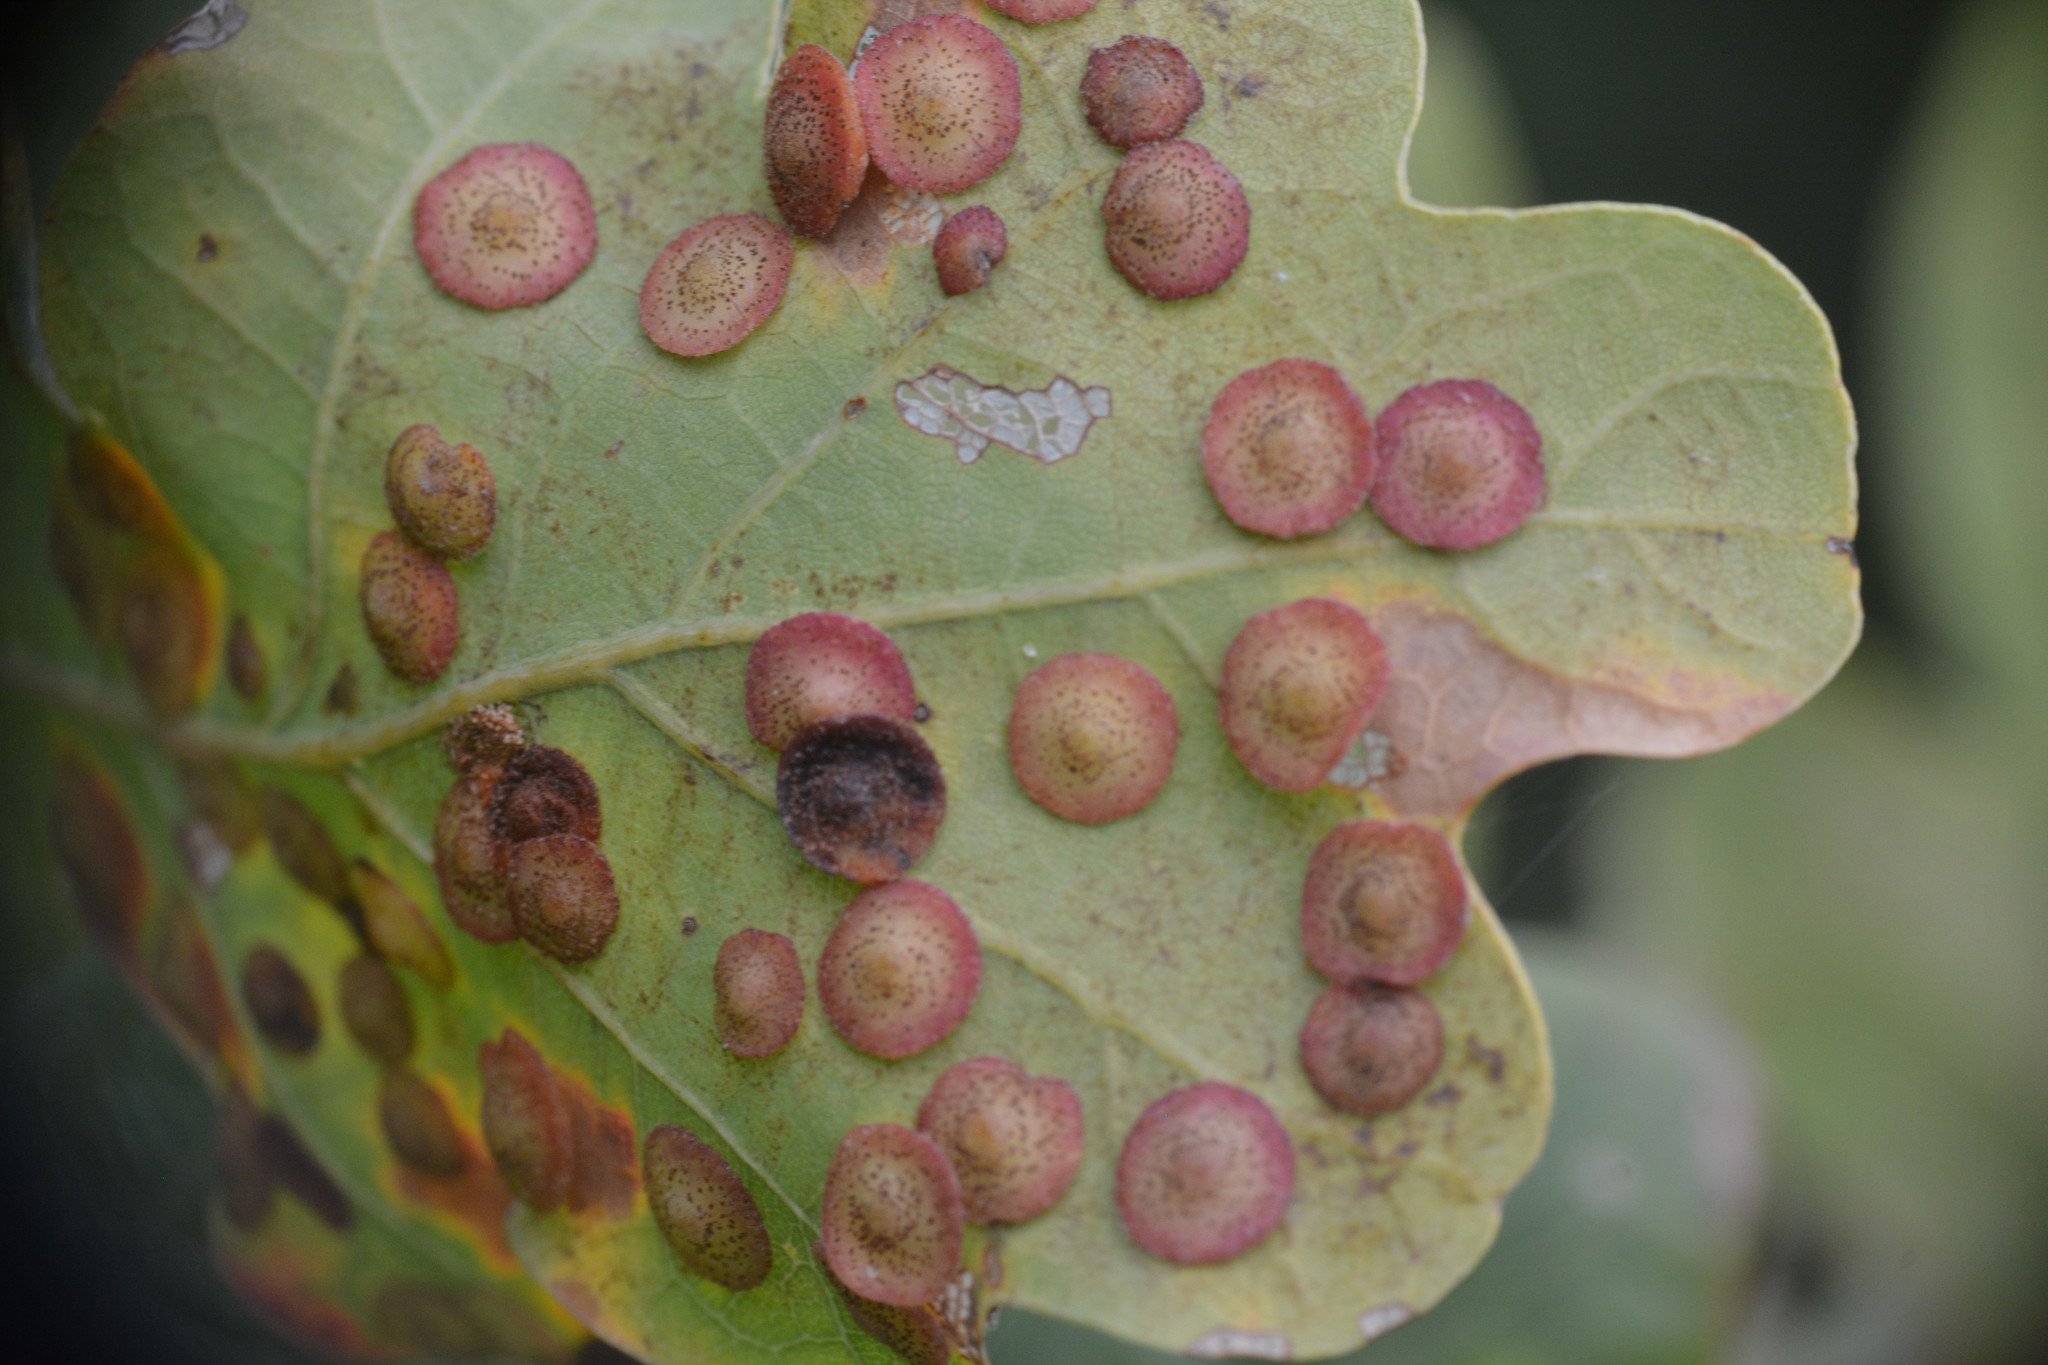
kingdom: Animalia
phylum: Arthropoda
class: Insecta
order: Hymenoptera
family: Cynipidae
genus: Neuroterus
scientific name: Neuroterus quercusbaccarum
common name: Common spangle gall
